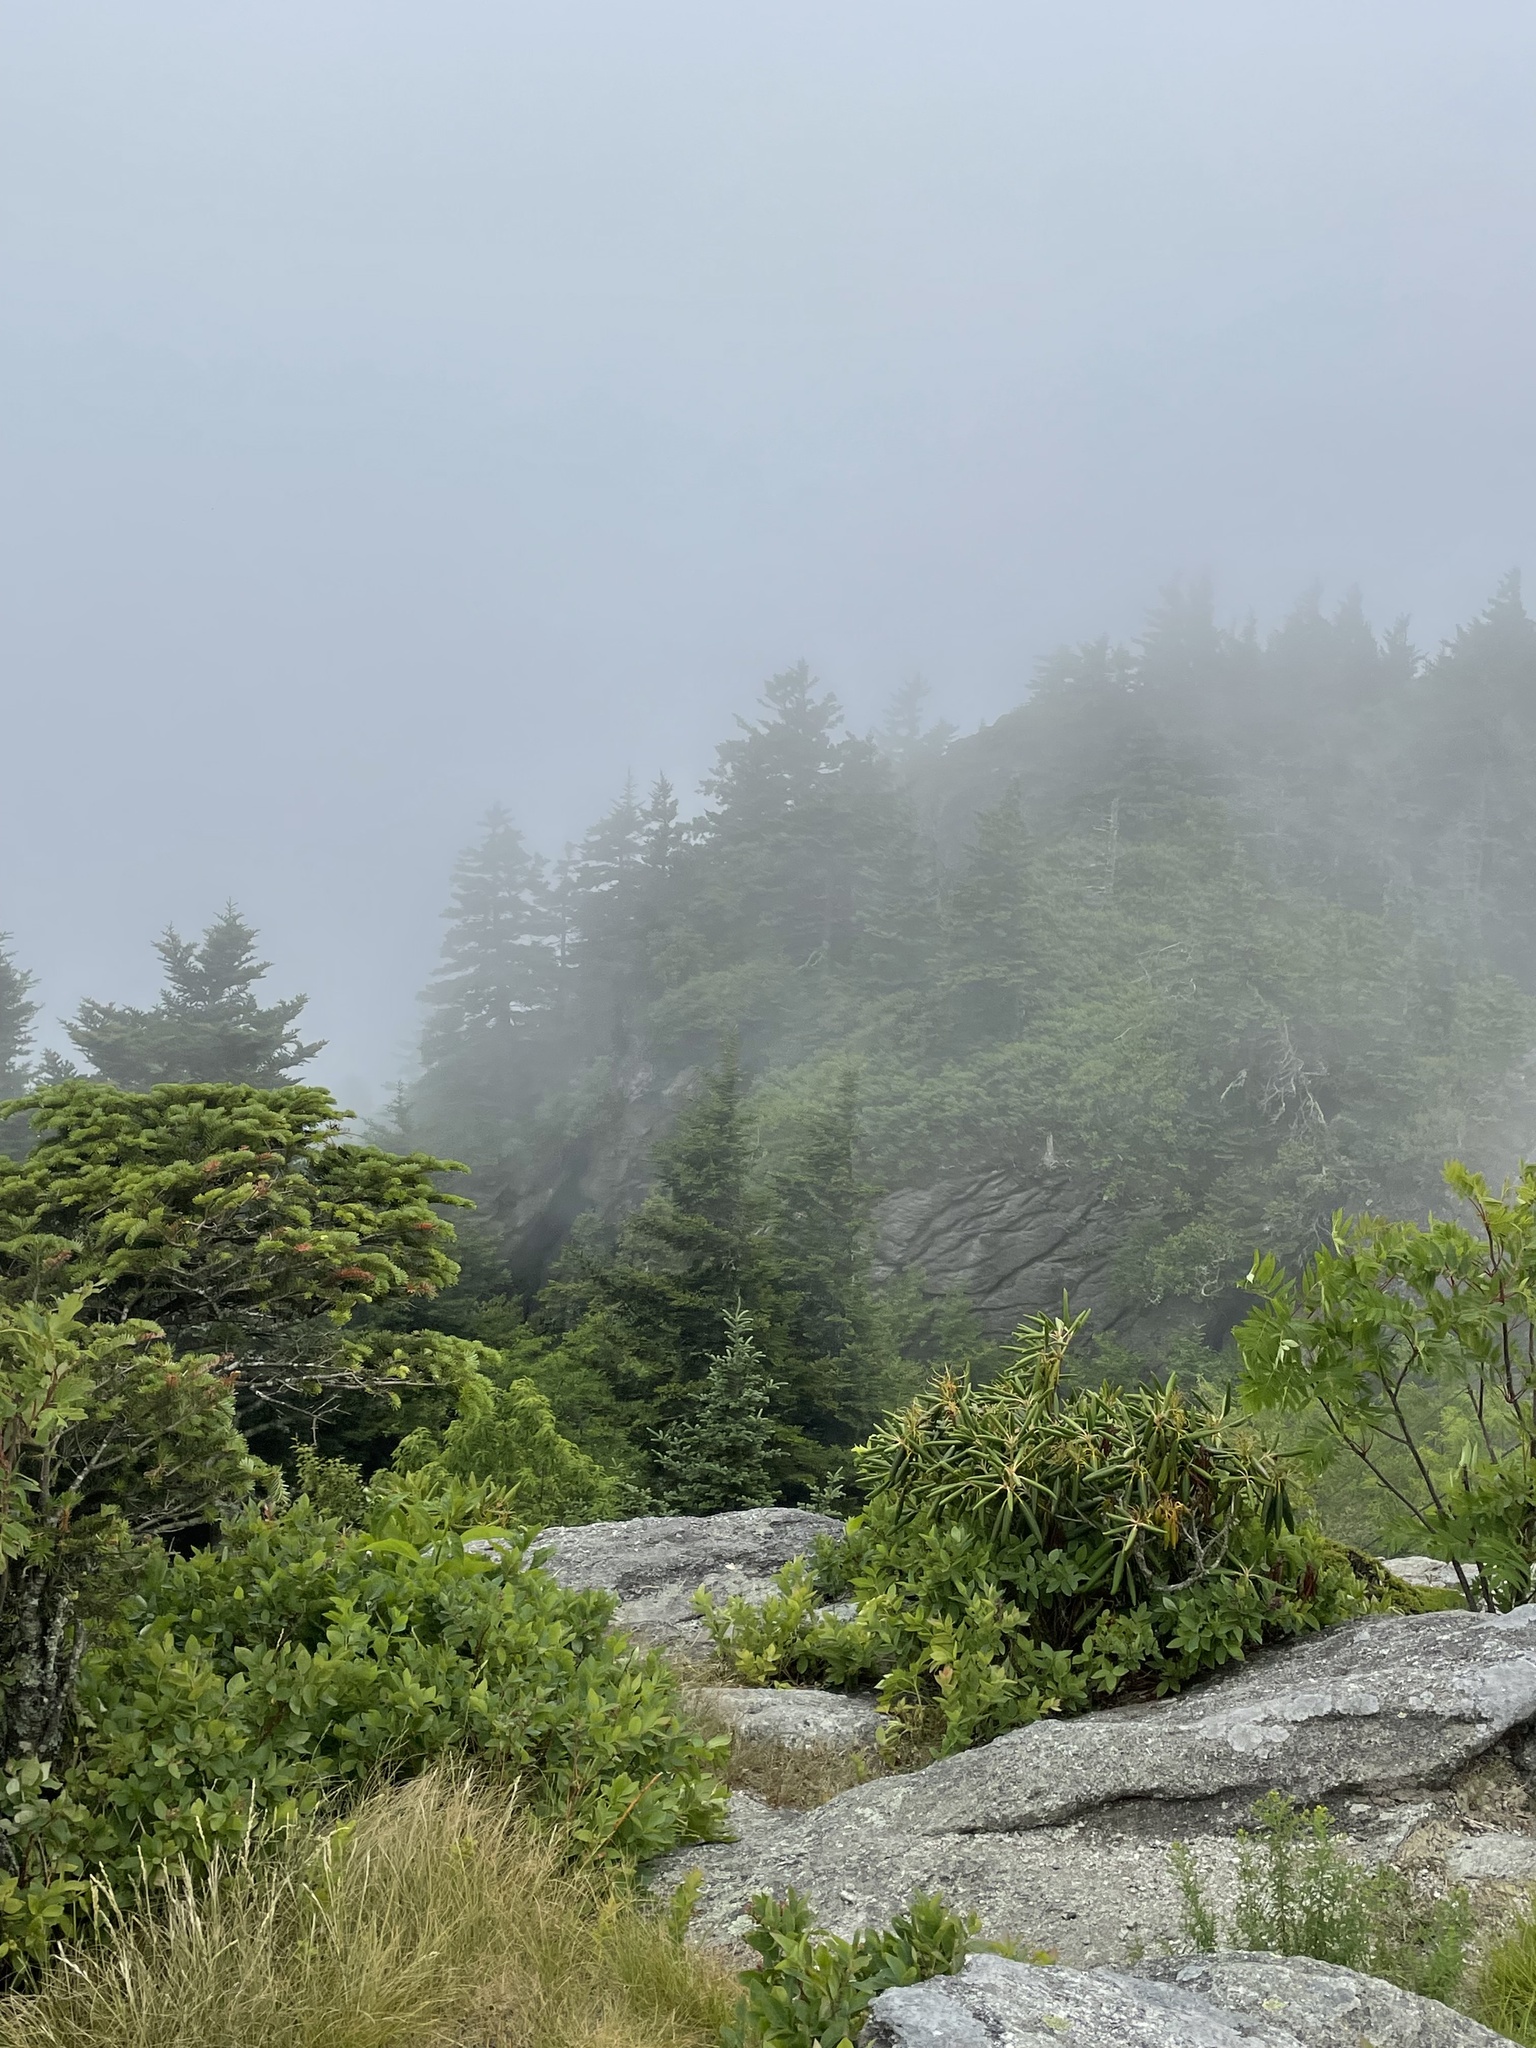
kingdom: Plantae
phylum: Tracheophyta
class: Magnoliopsida
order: Ericales
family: Ericaceae
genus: Rhododendron
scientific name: Rhododendron catawbiense
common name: Catawba rhododendron
